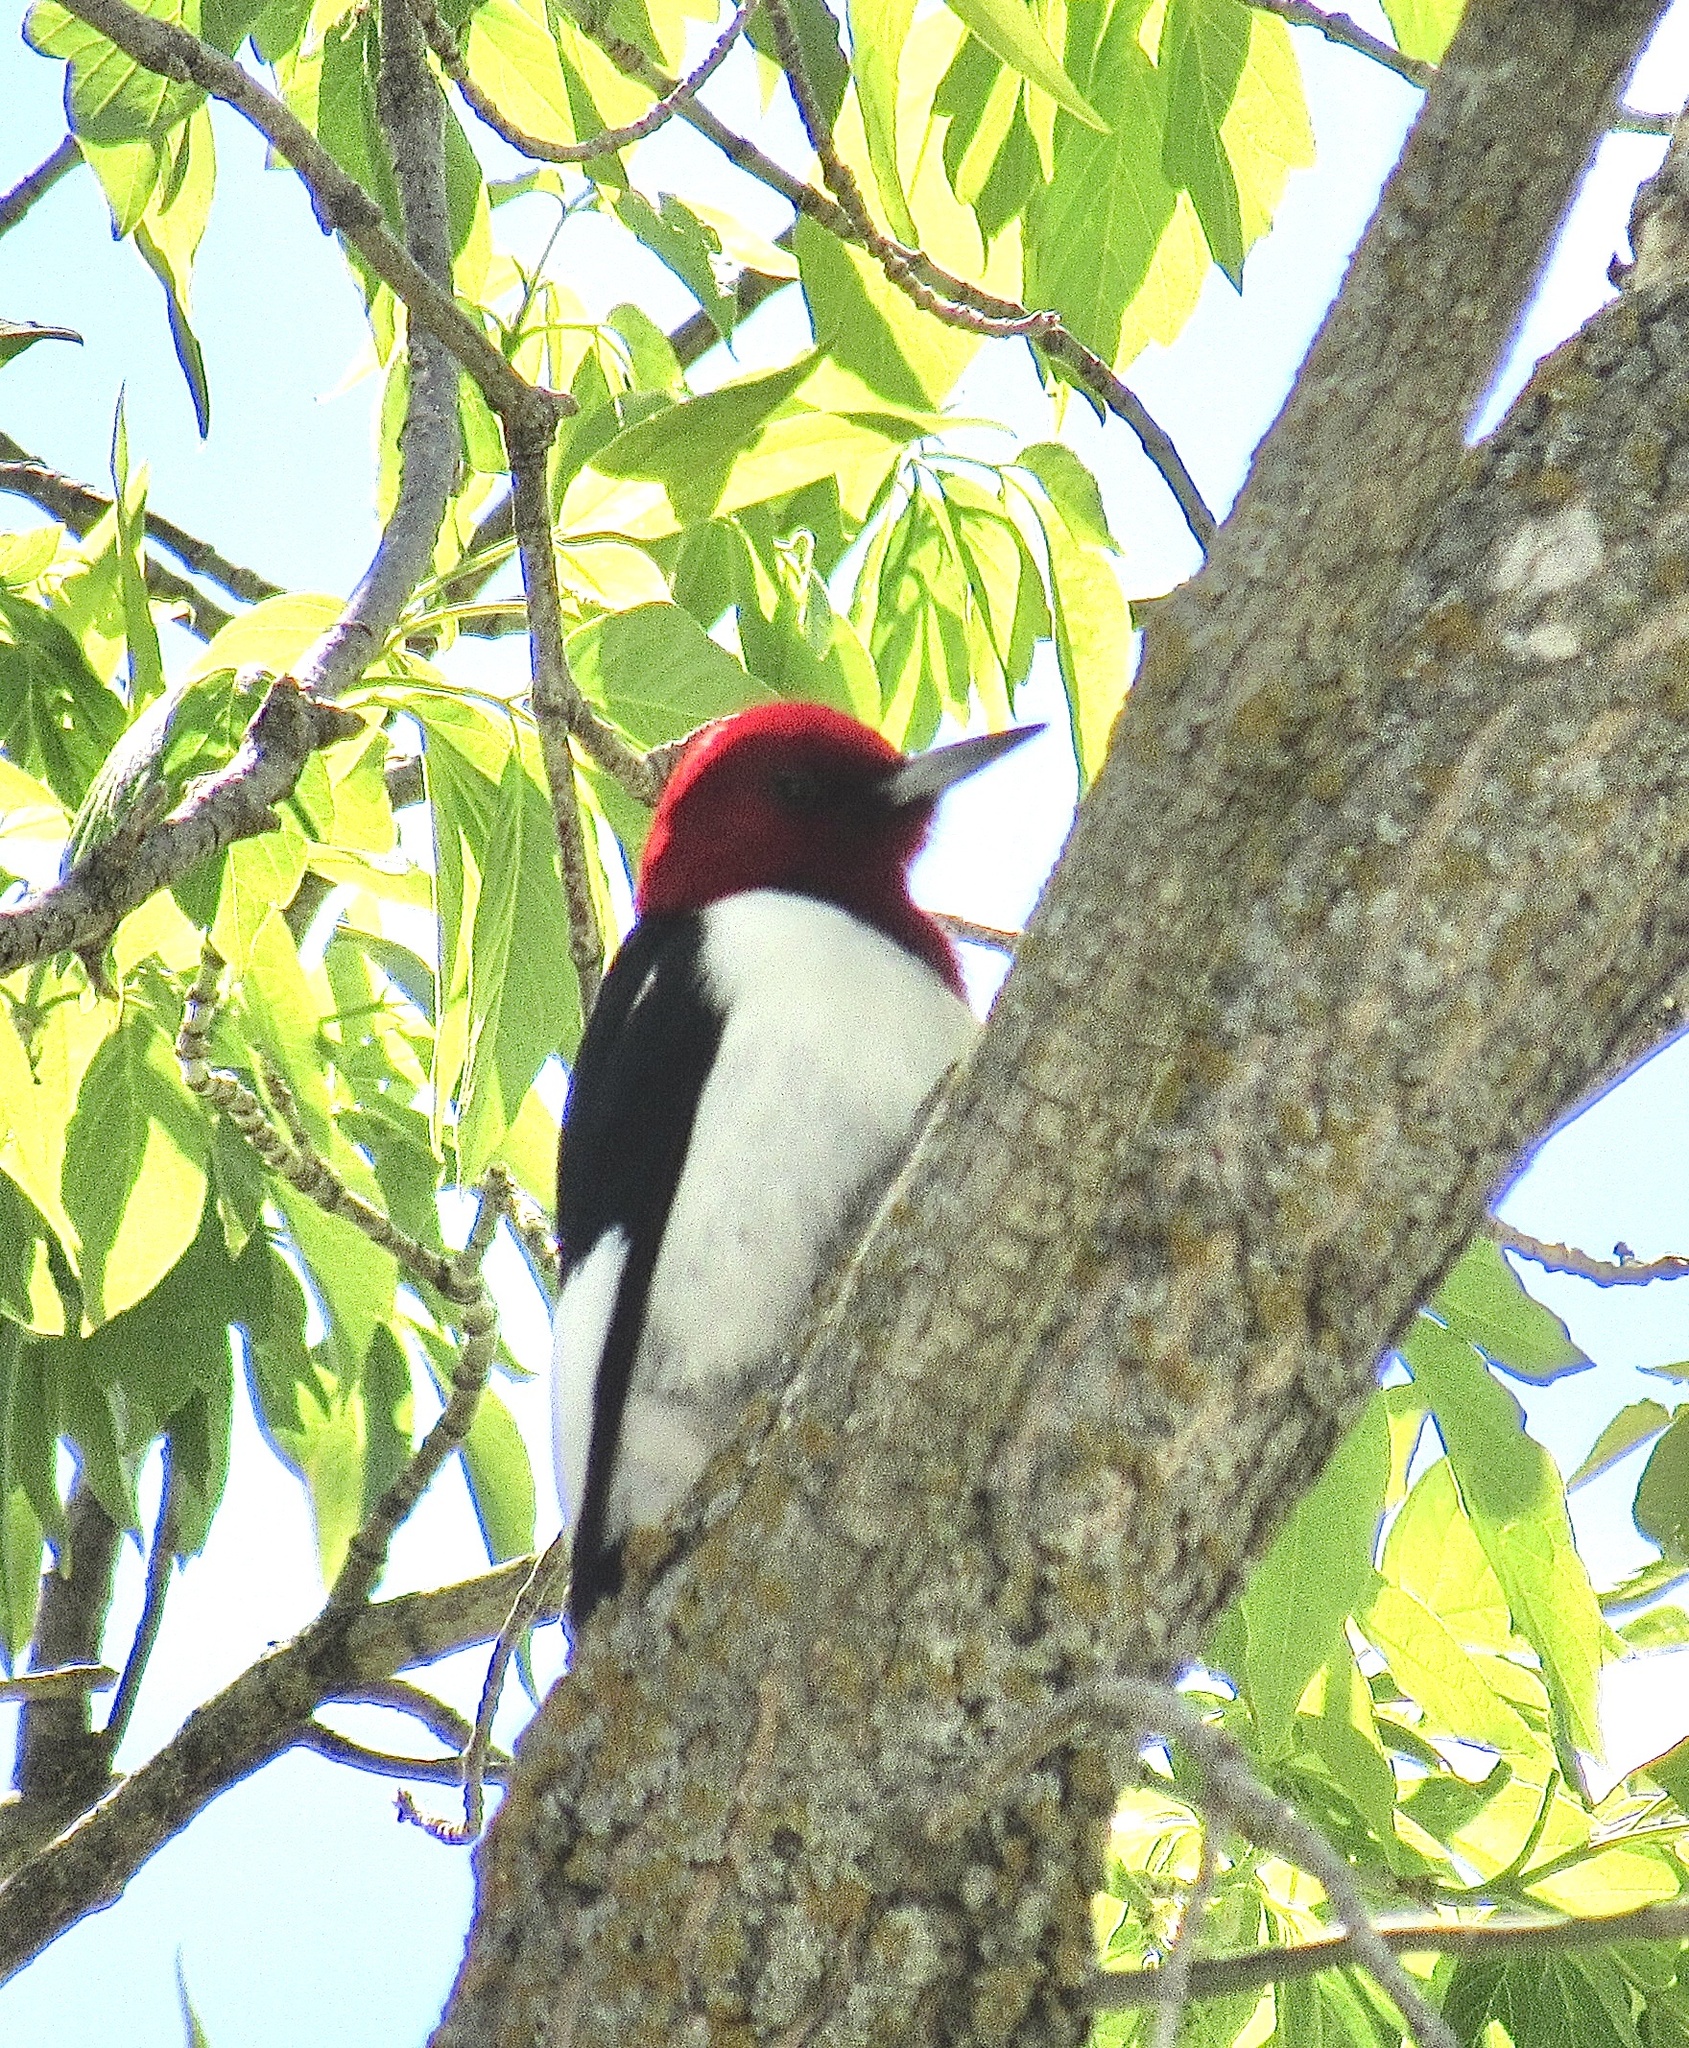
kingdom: Animalia
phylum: Chordata
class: Aves
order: Piciformes
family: Picidae
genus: Melanerpes
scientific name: Melanerpes erythrocephalus
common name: Red-headed woodpecker
